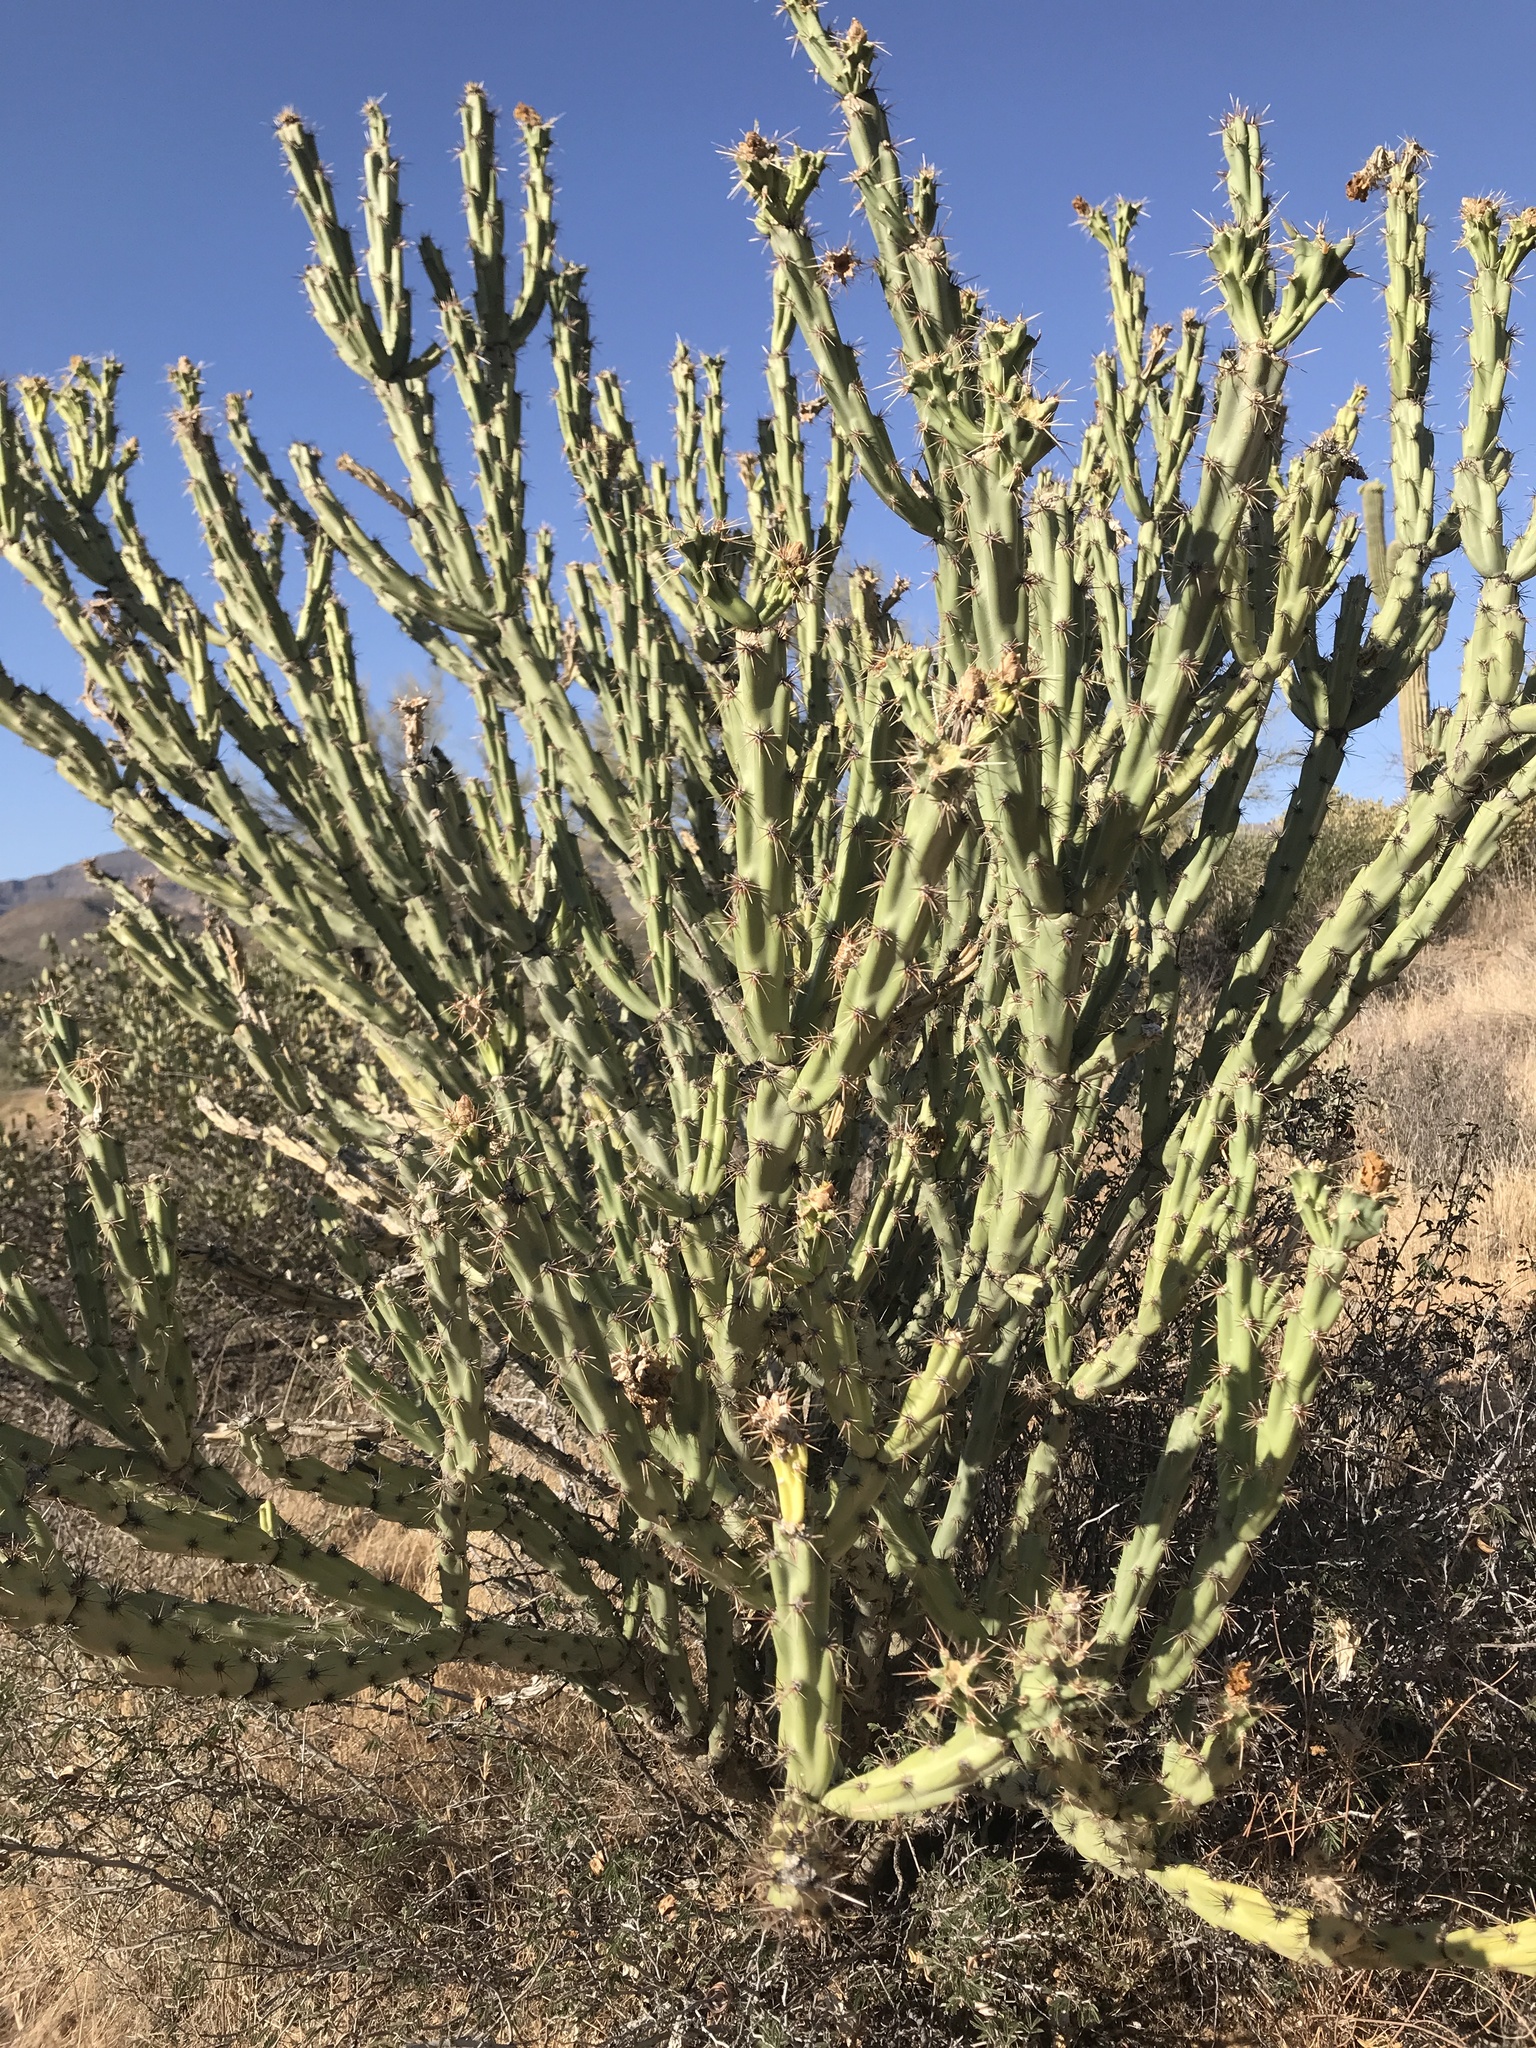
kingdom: Plantae
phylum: Tracheophyta
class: Magnoliopsida
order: Caryophyllales
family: Cactaceae
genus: Cylindropuntia
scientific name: Cylindropuntia acanthocarpa
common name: Buckhorn cholla
